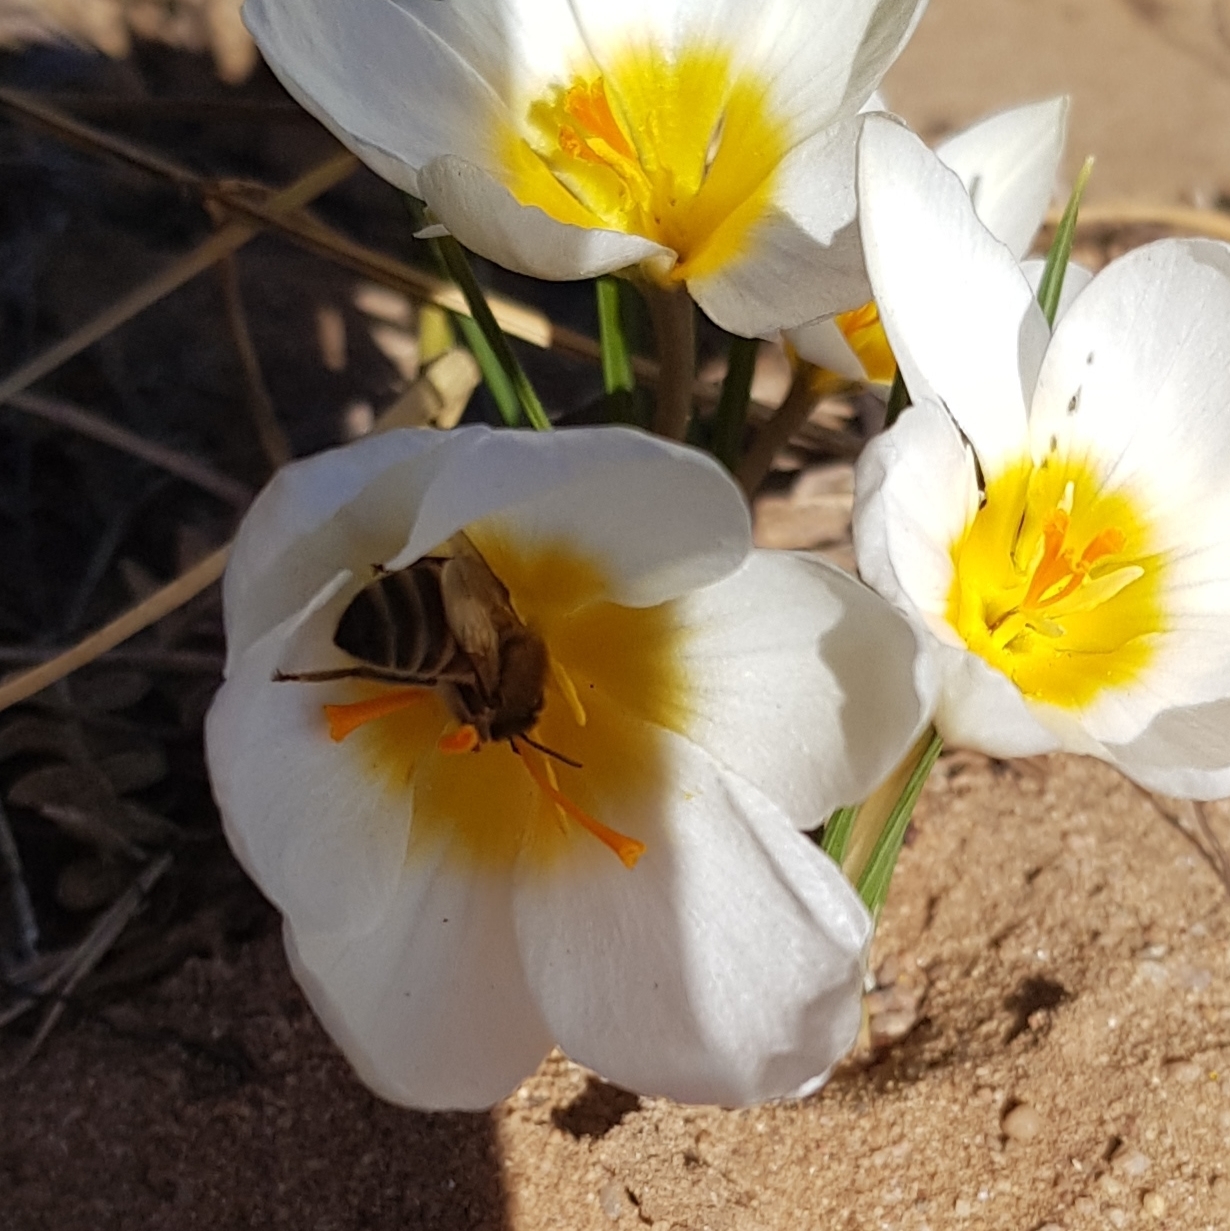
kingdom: Animalia
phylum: Arthropoda
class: Insecta
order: Hymenoptera
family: Apidae
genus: Apis
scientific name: Apis mellifera
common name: Honey bee
